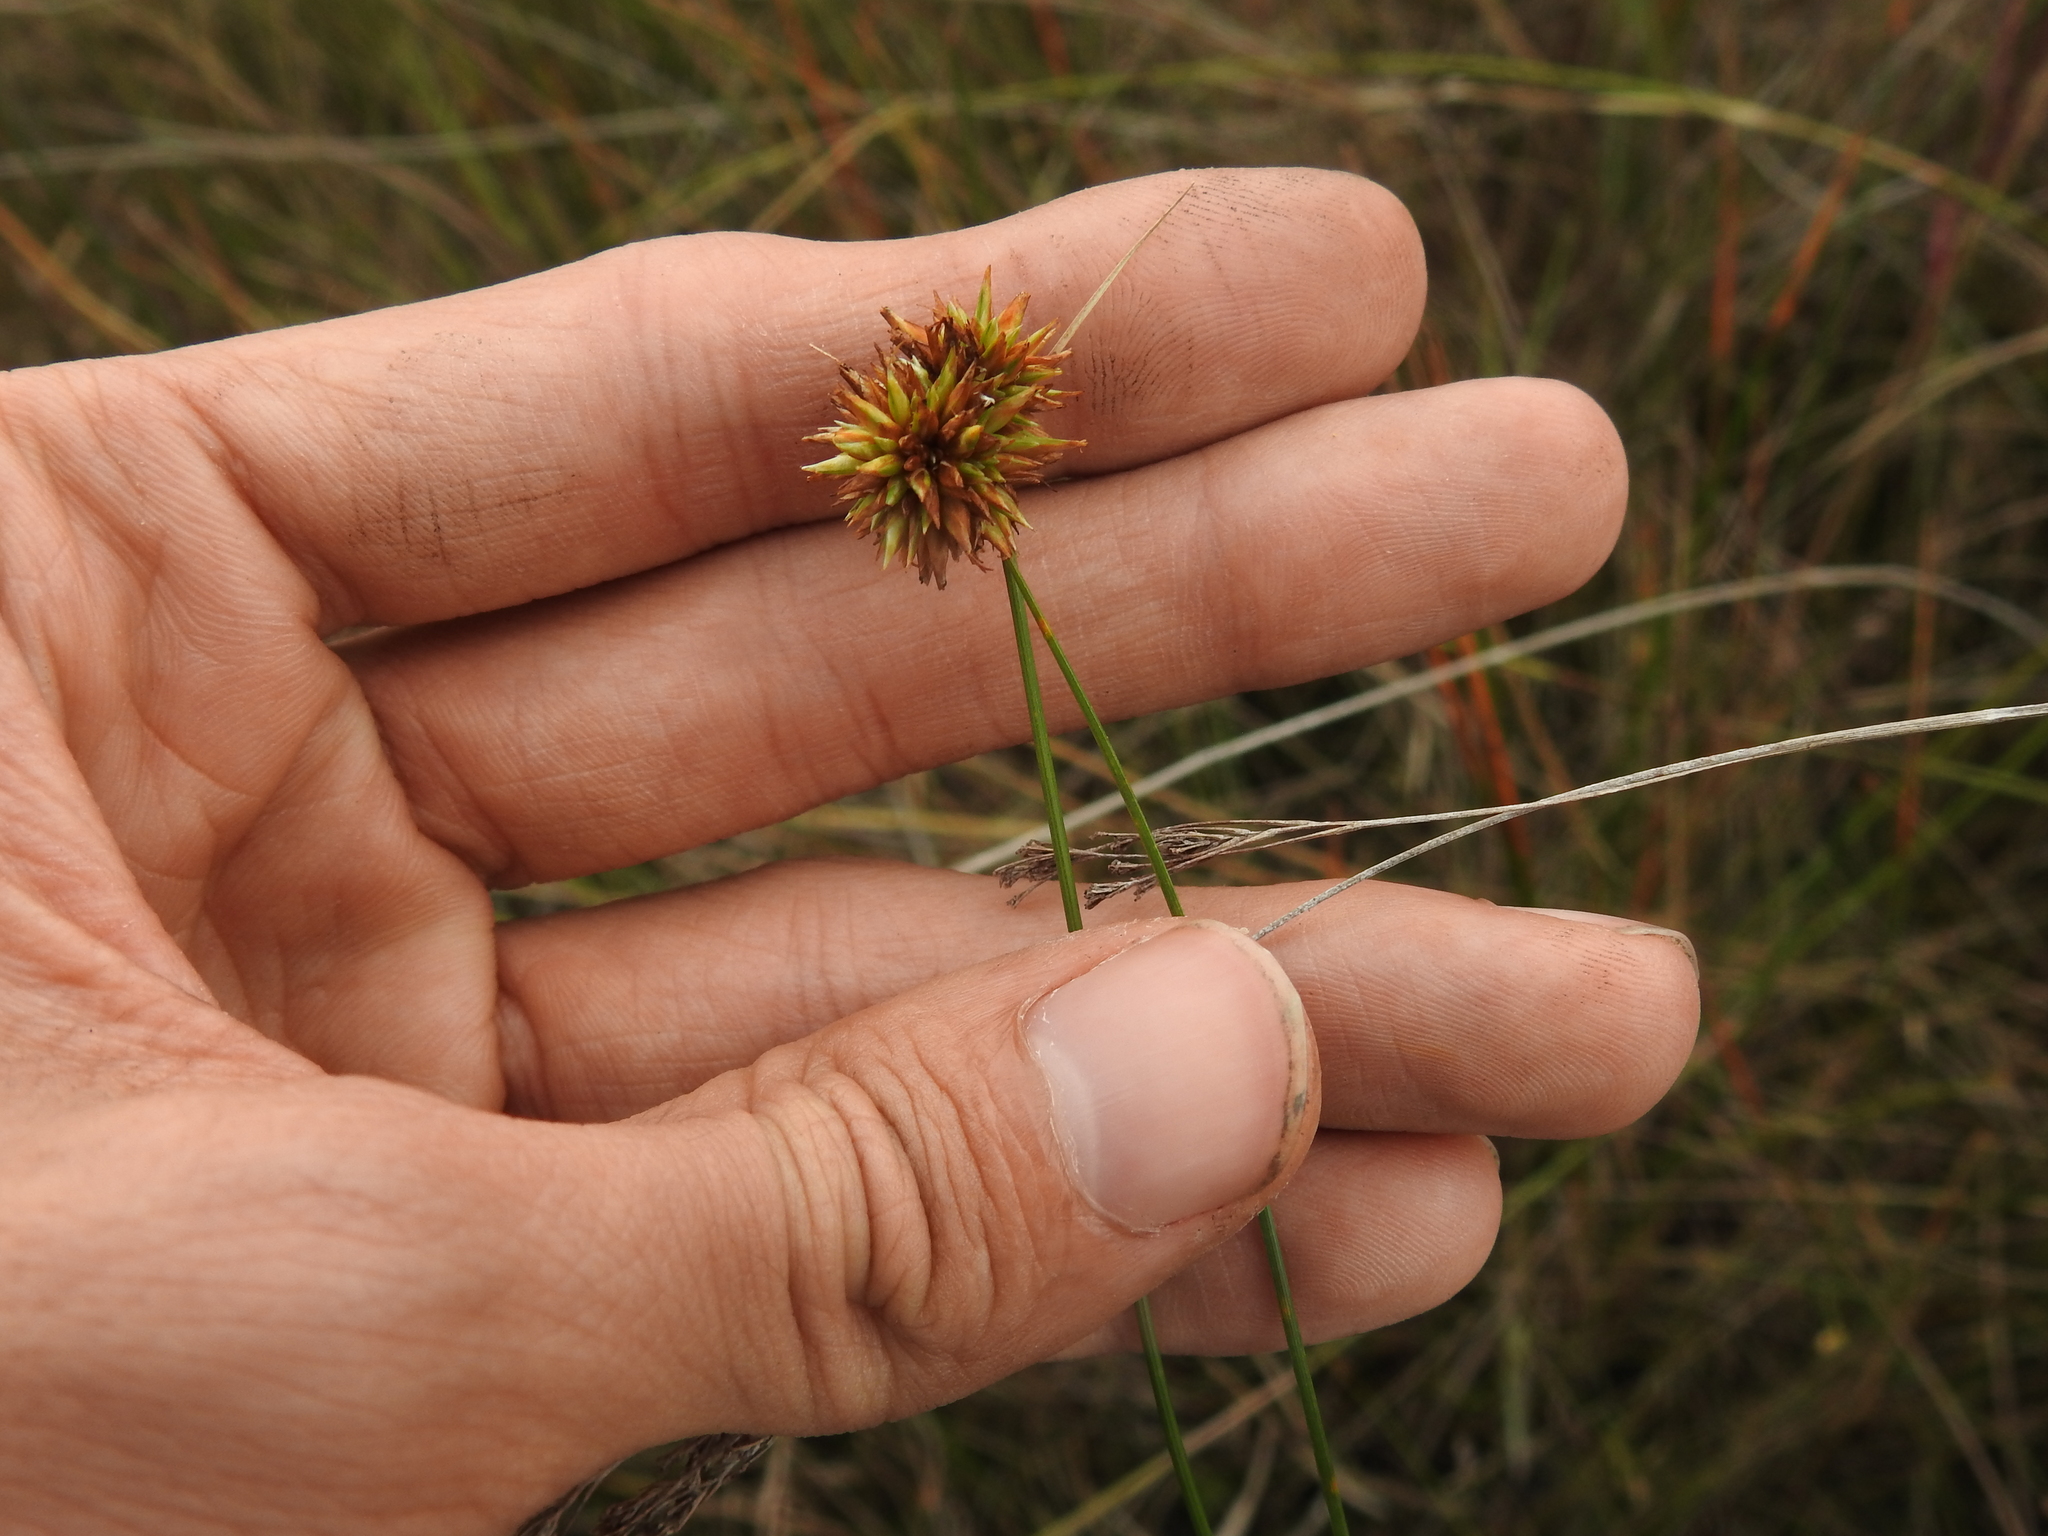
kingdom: Plantae
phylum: Tracheophyta
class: Liliopsida
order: Poales
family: Cyperaceae
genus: Rhynchospora
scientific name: Rhynchospora tracyi
